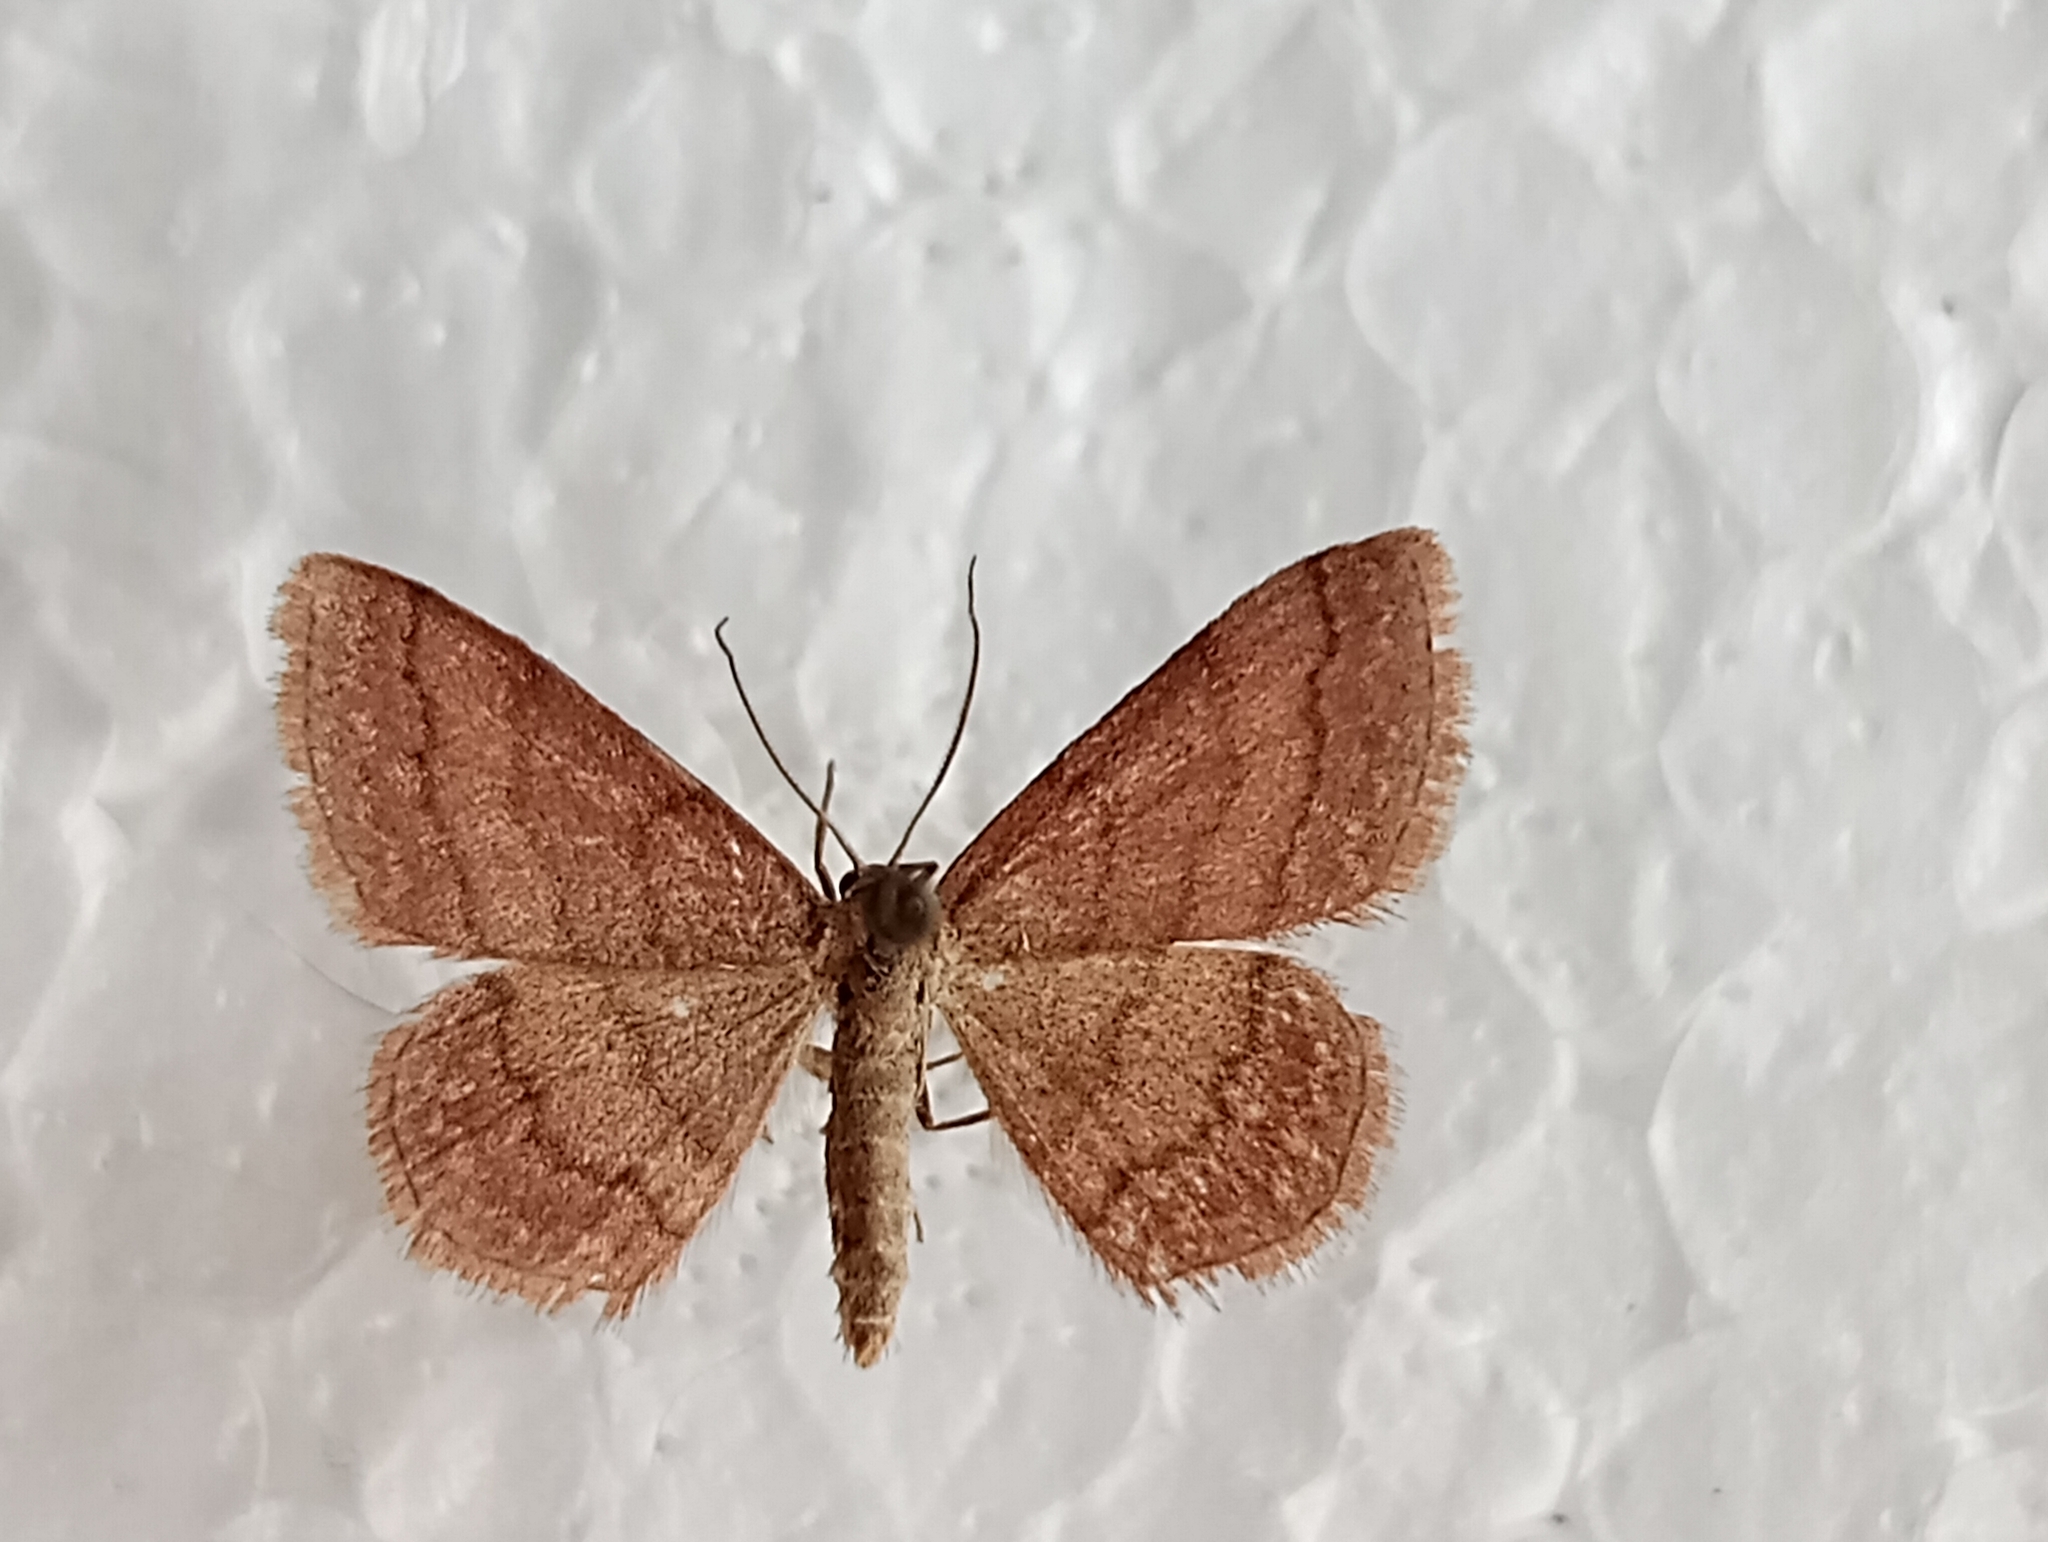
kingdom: Animalia
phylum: Arthropoda
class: Insecta
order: Lepidoptera
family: Geometridae
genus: Scopula
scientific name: Scopula rubiginata
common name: Tawny wave
